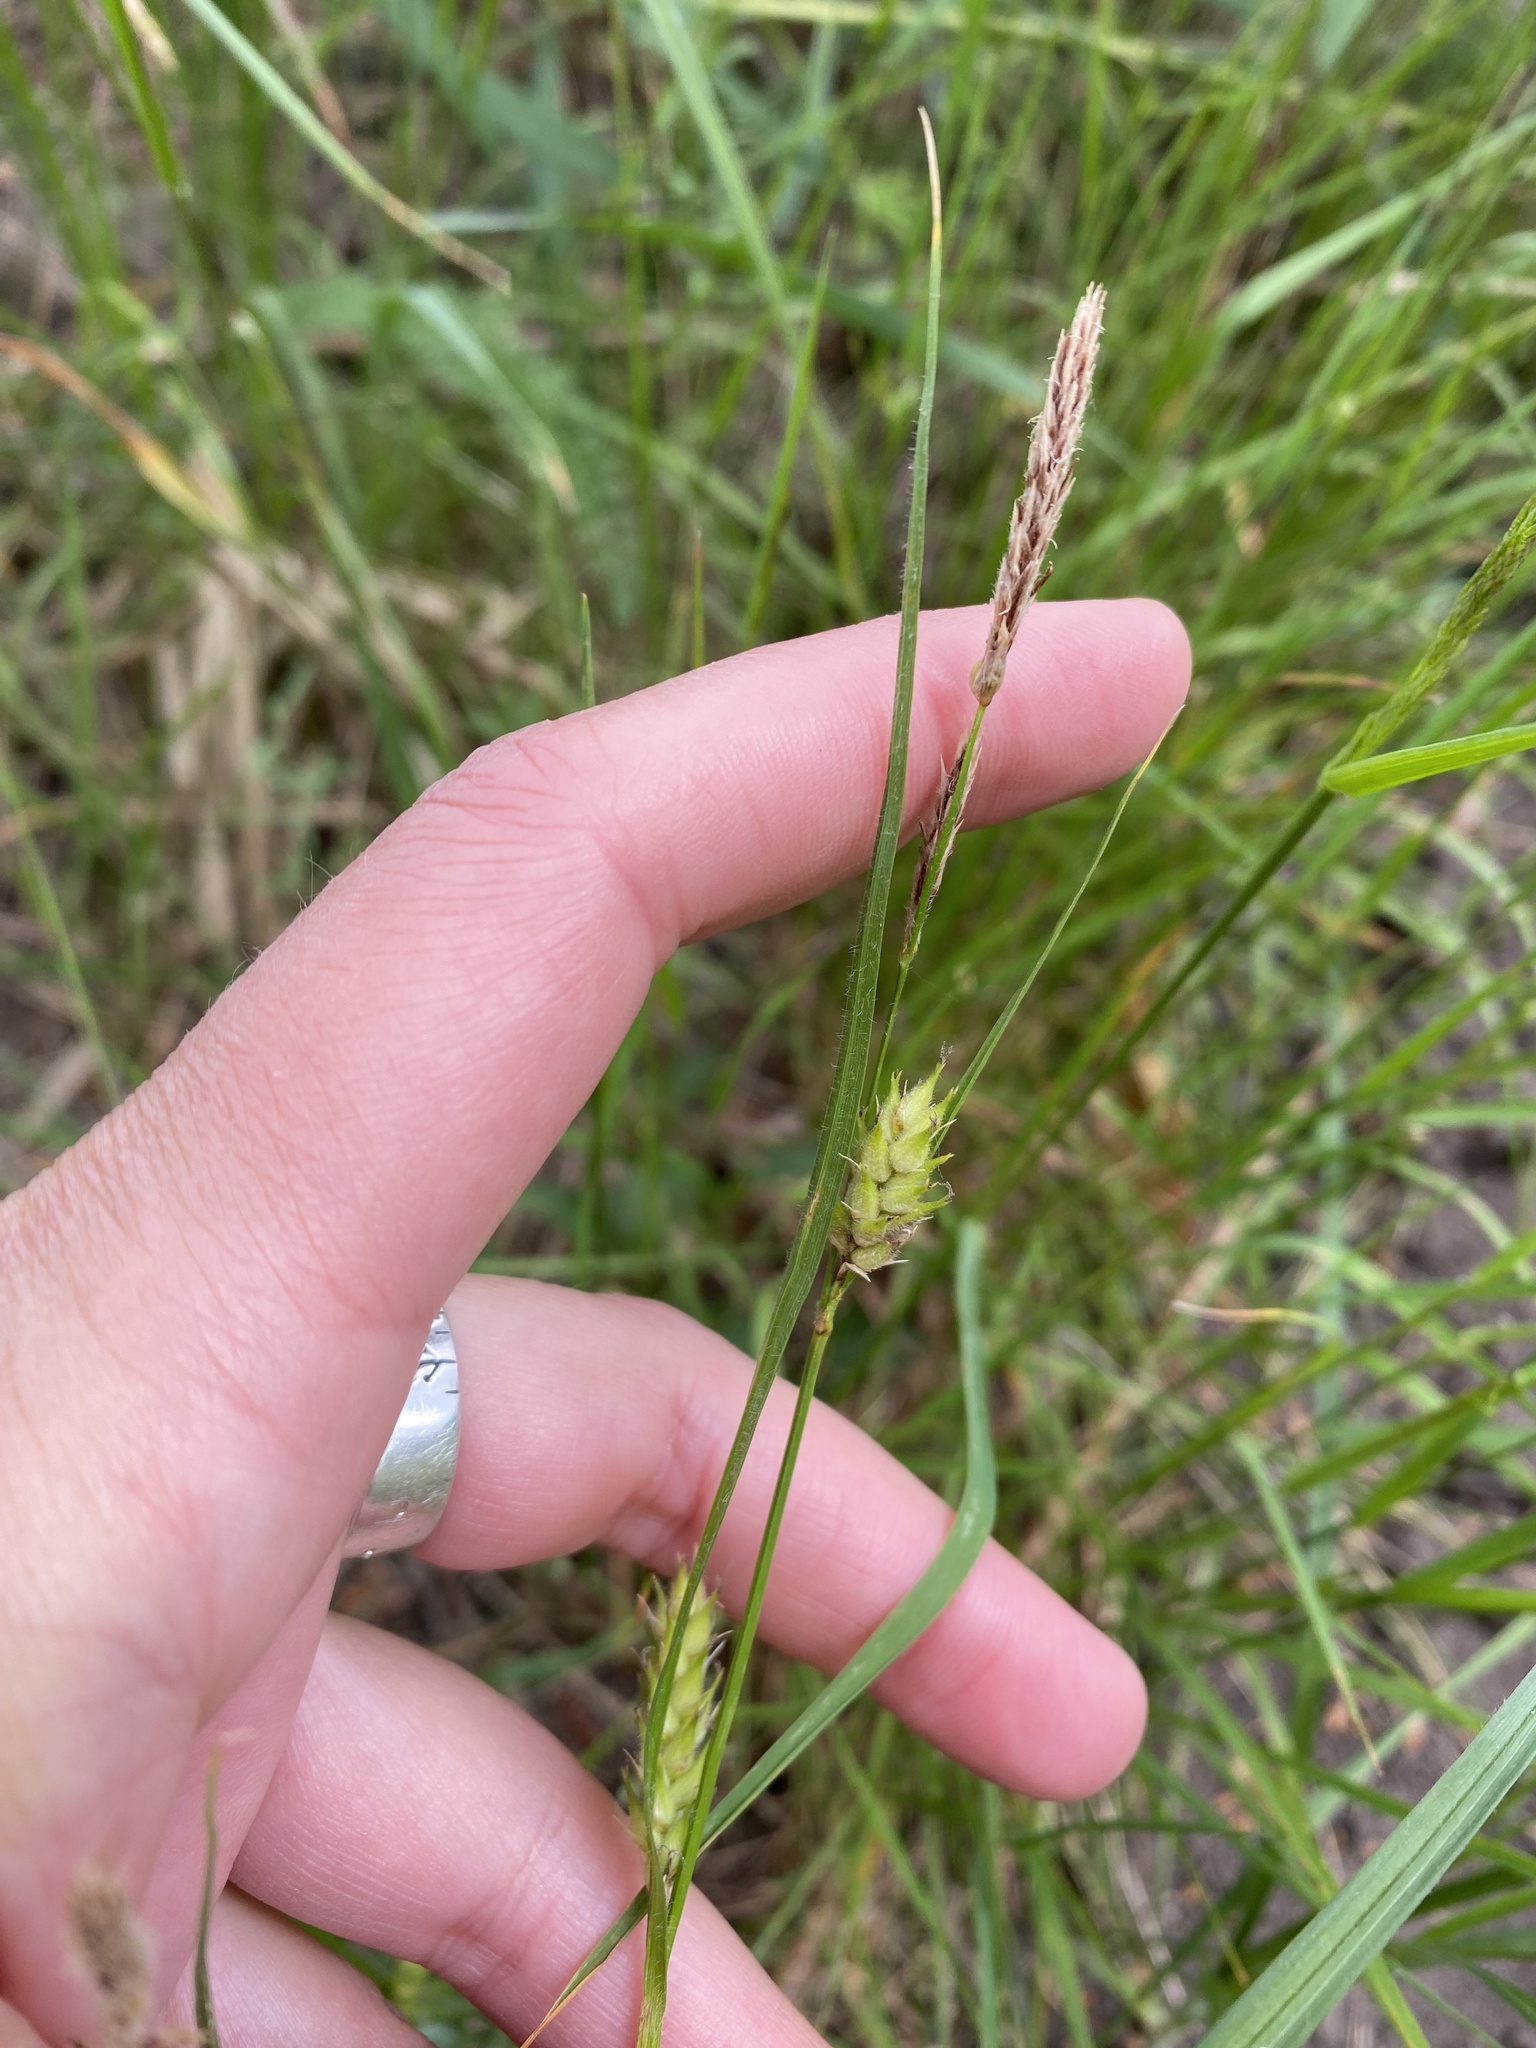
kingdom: Plantae
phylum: Tracheophyta
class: Liliopsida
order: Poales
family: Cyperaceae
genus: Carex
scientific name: Carex hirta
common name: Hairy sedge
